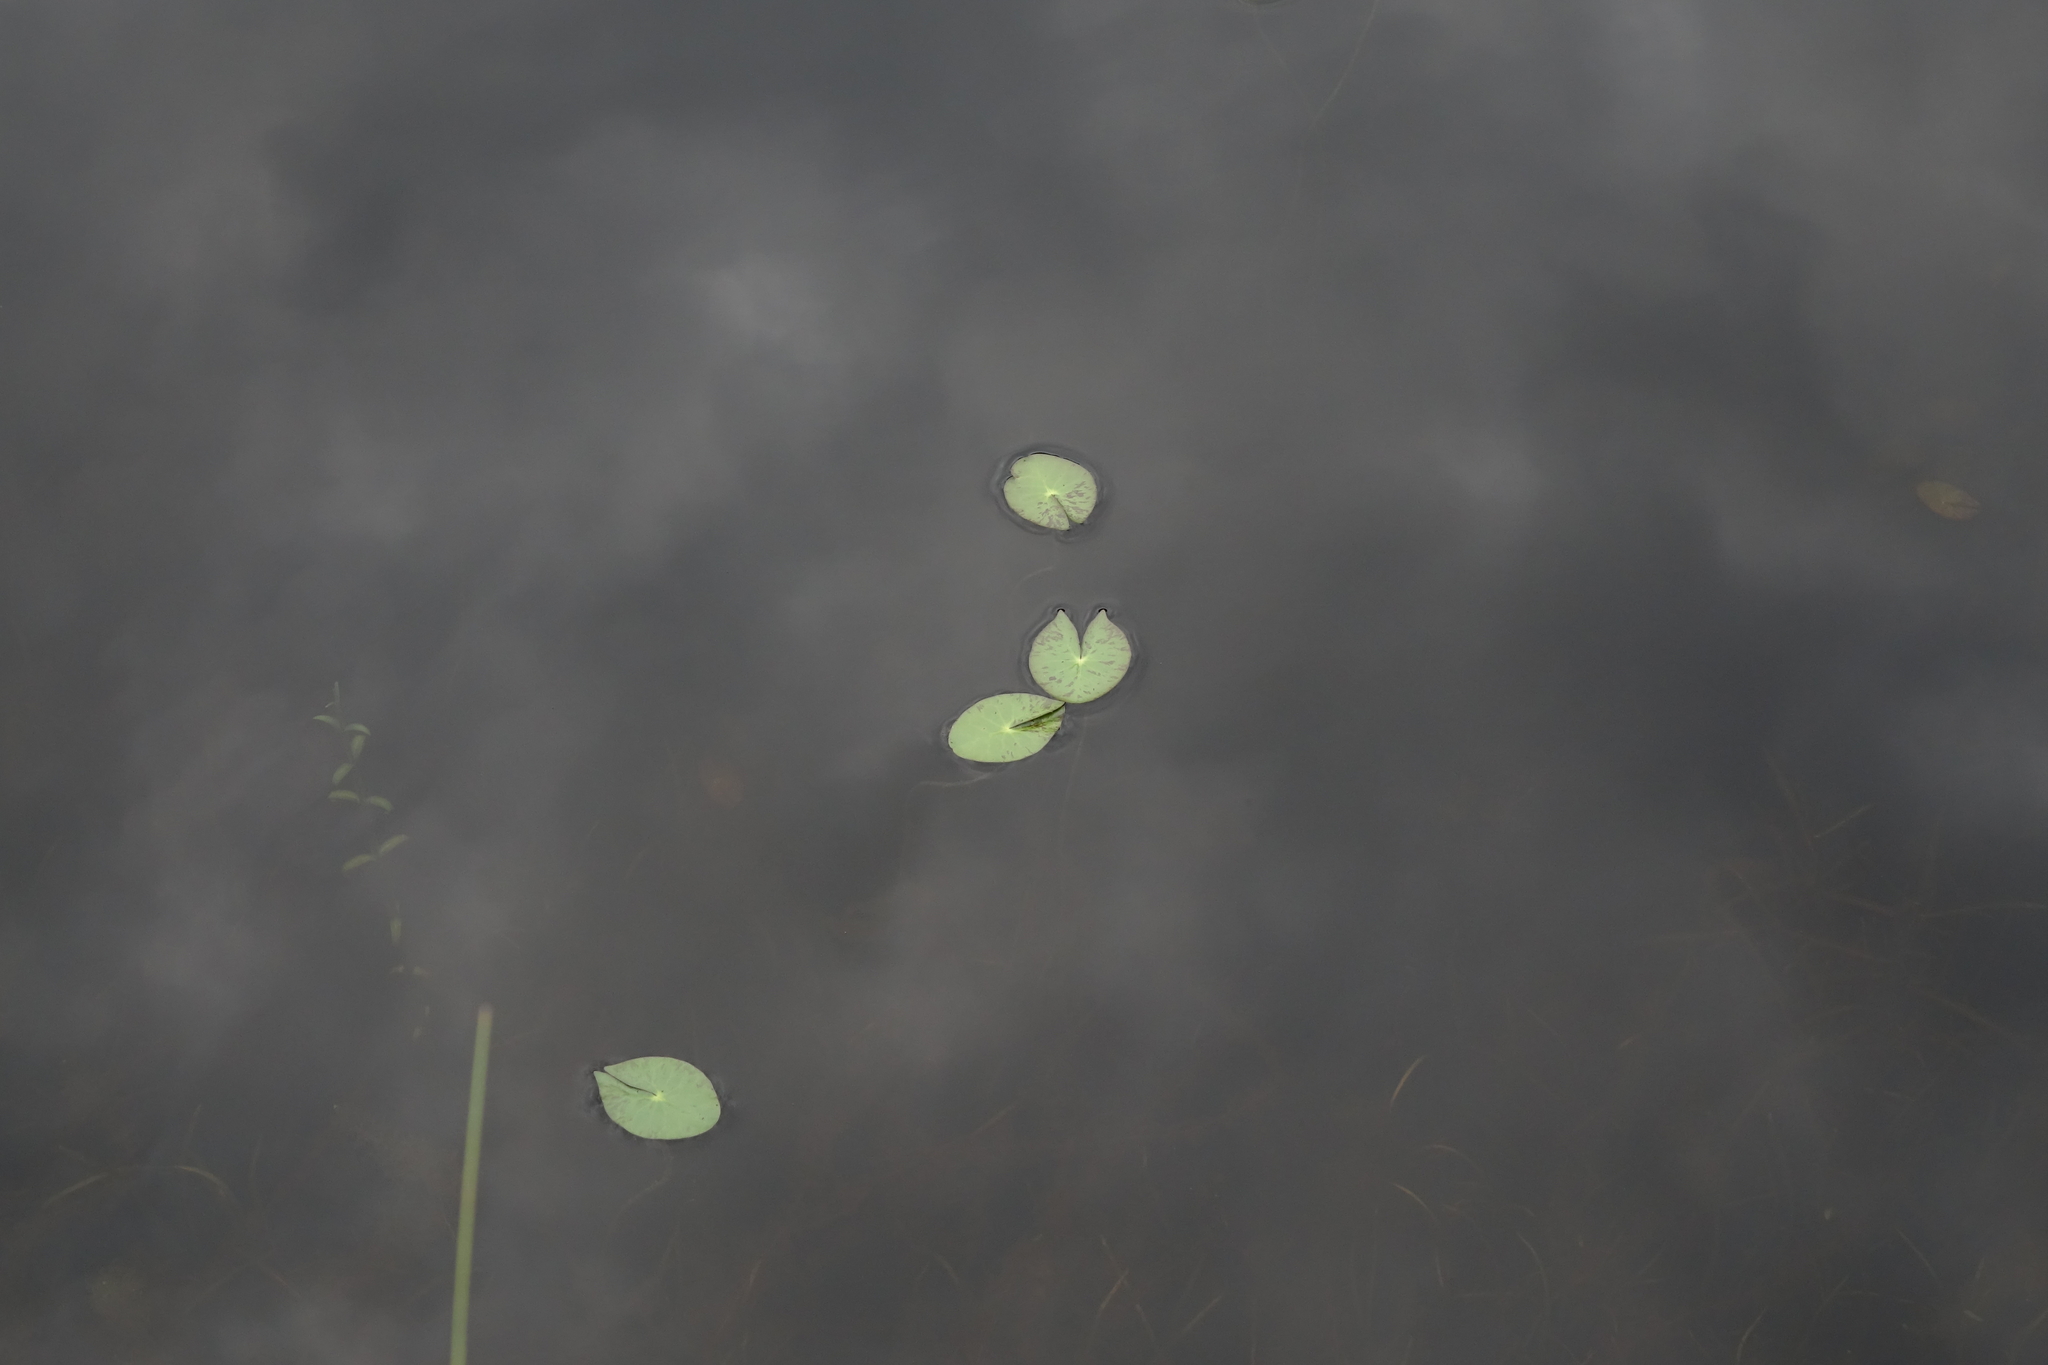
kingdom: Plantae
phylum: Tracheophyta
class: Magnoliopsida
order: Nymphaeales
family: Nymphaeaceae
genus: Nymphaea
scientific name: Nymphaea tetragona
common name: Pygmy water-lily
